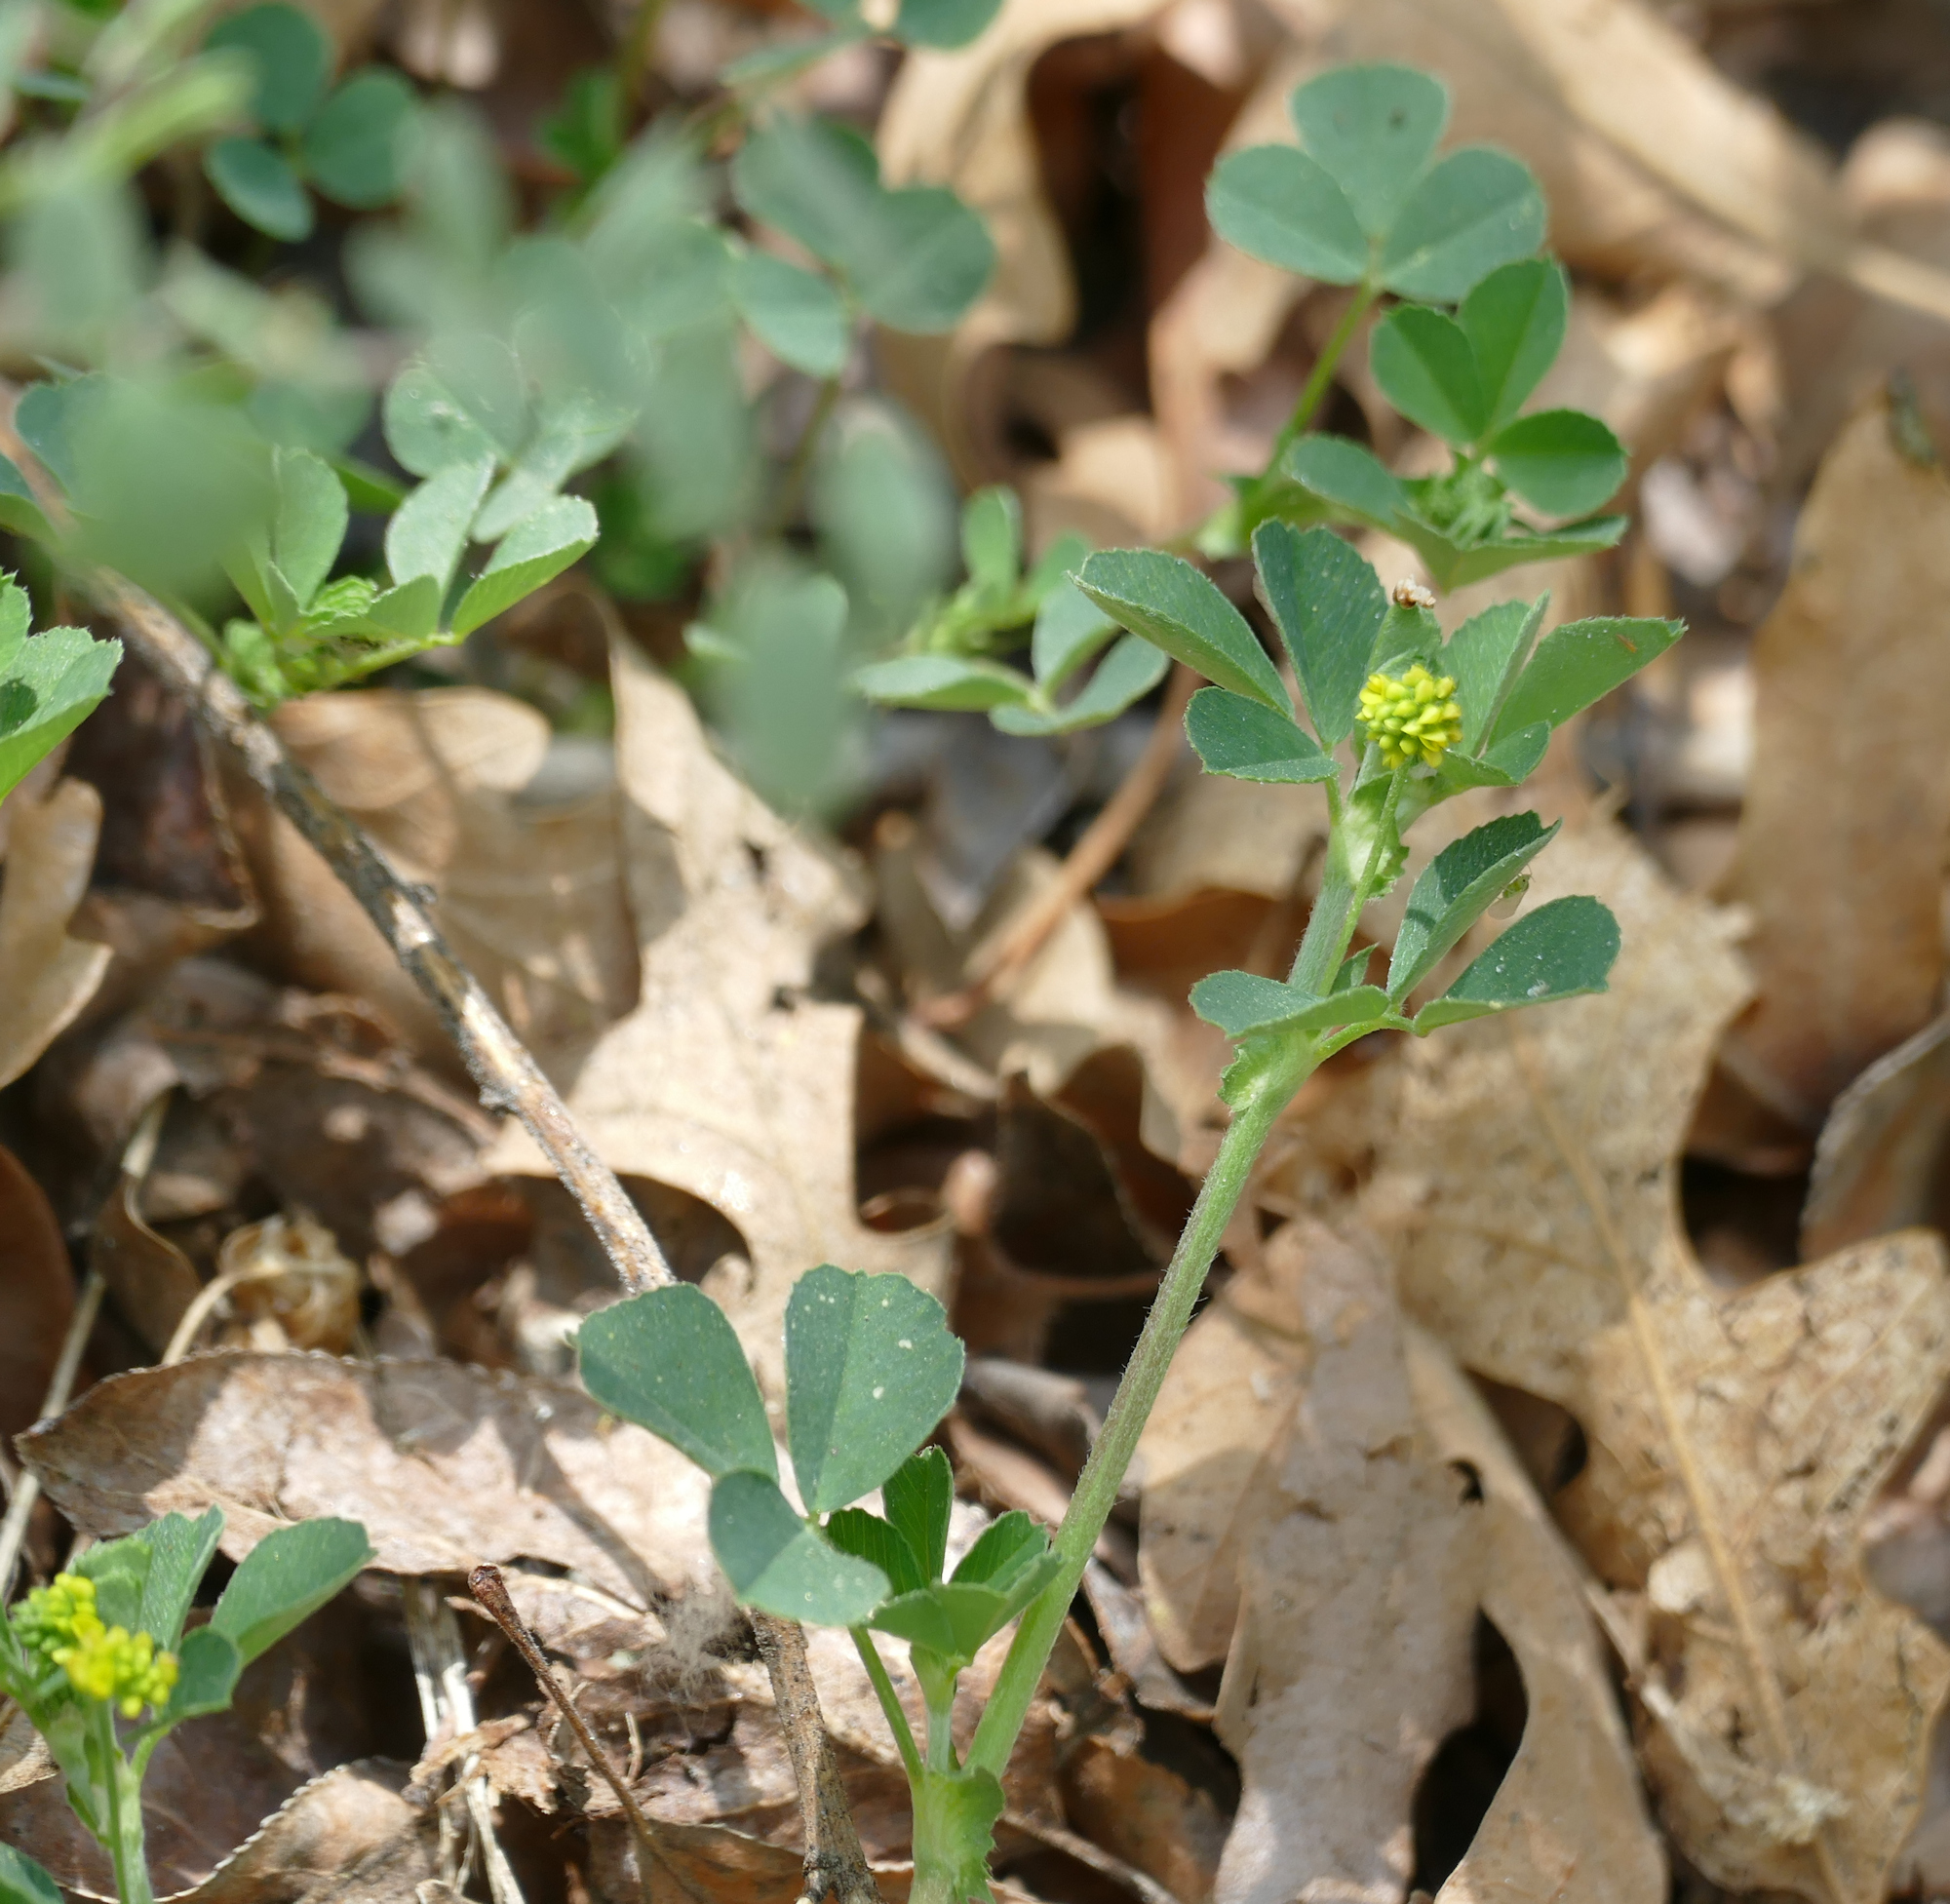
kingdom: Plantae
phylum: Tracheophyta
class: Magnoliopsida
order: Fabales
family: Fabaceae
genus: Medicago
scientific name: Medicago lupulina
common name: Black medick
